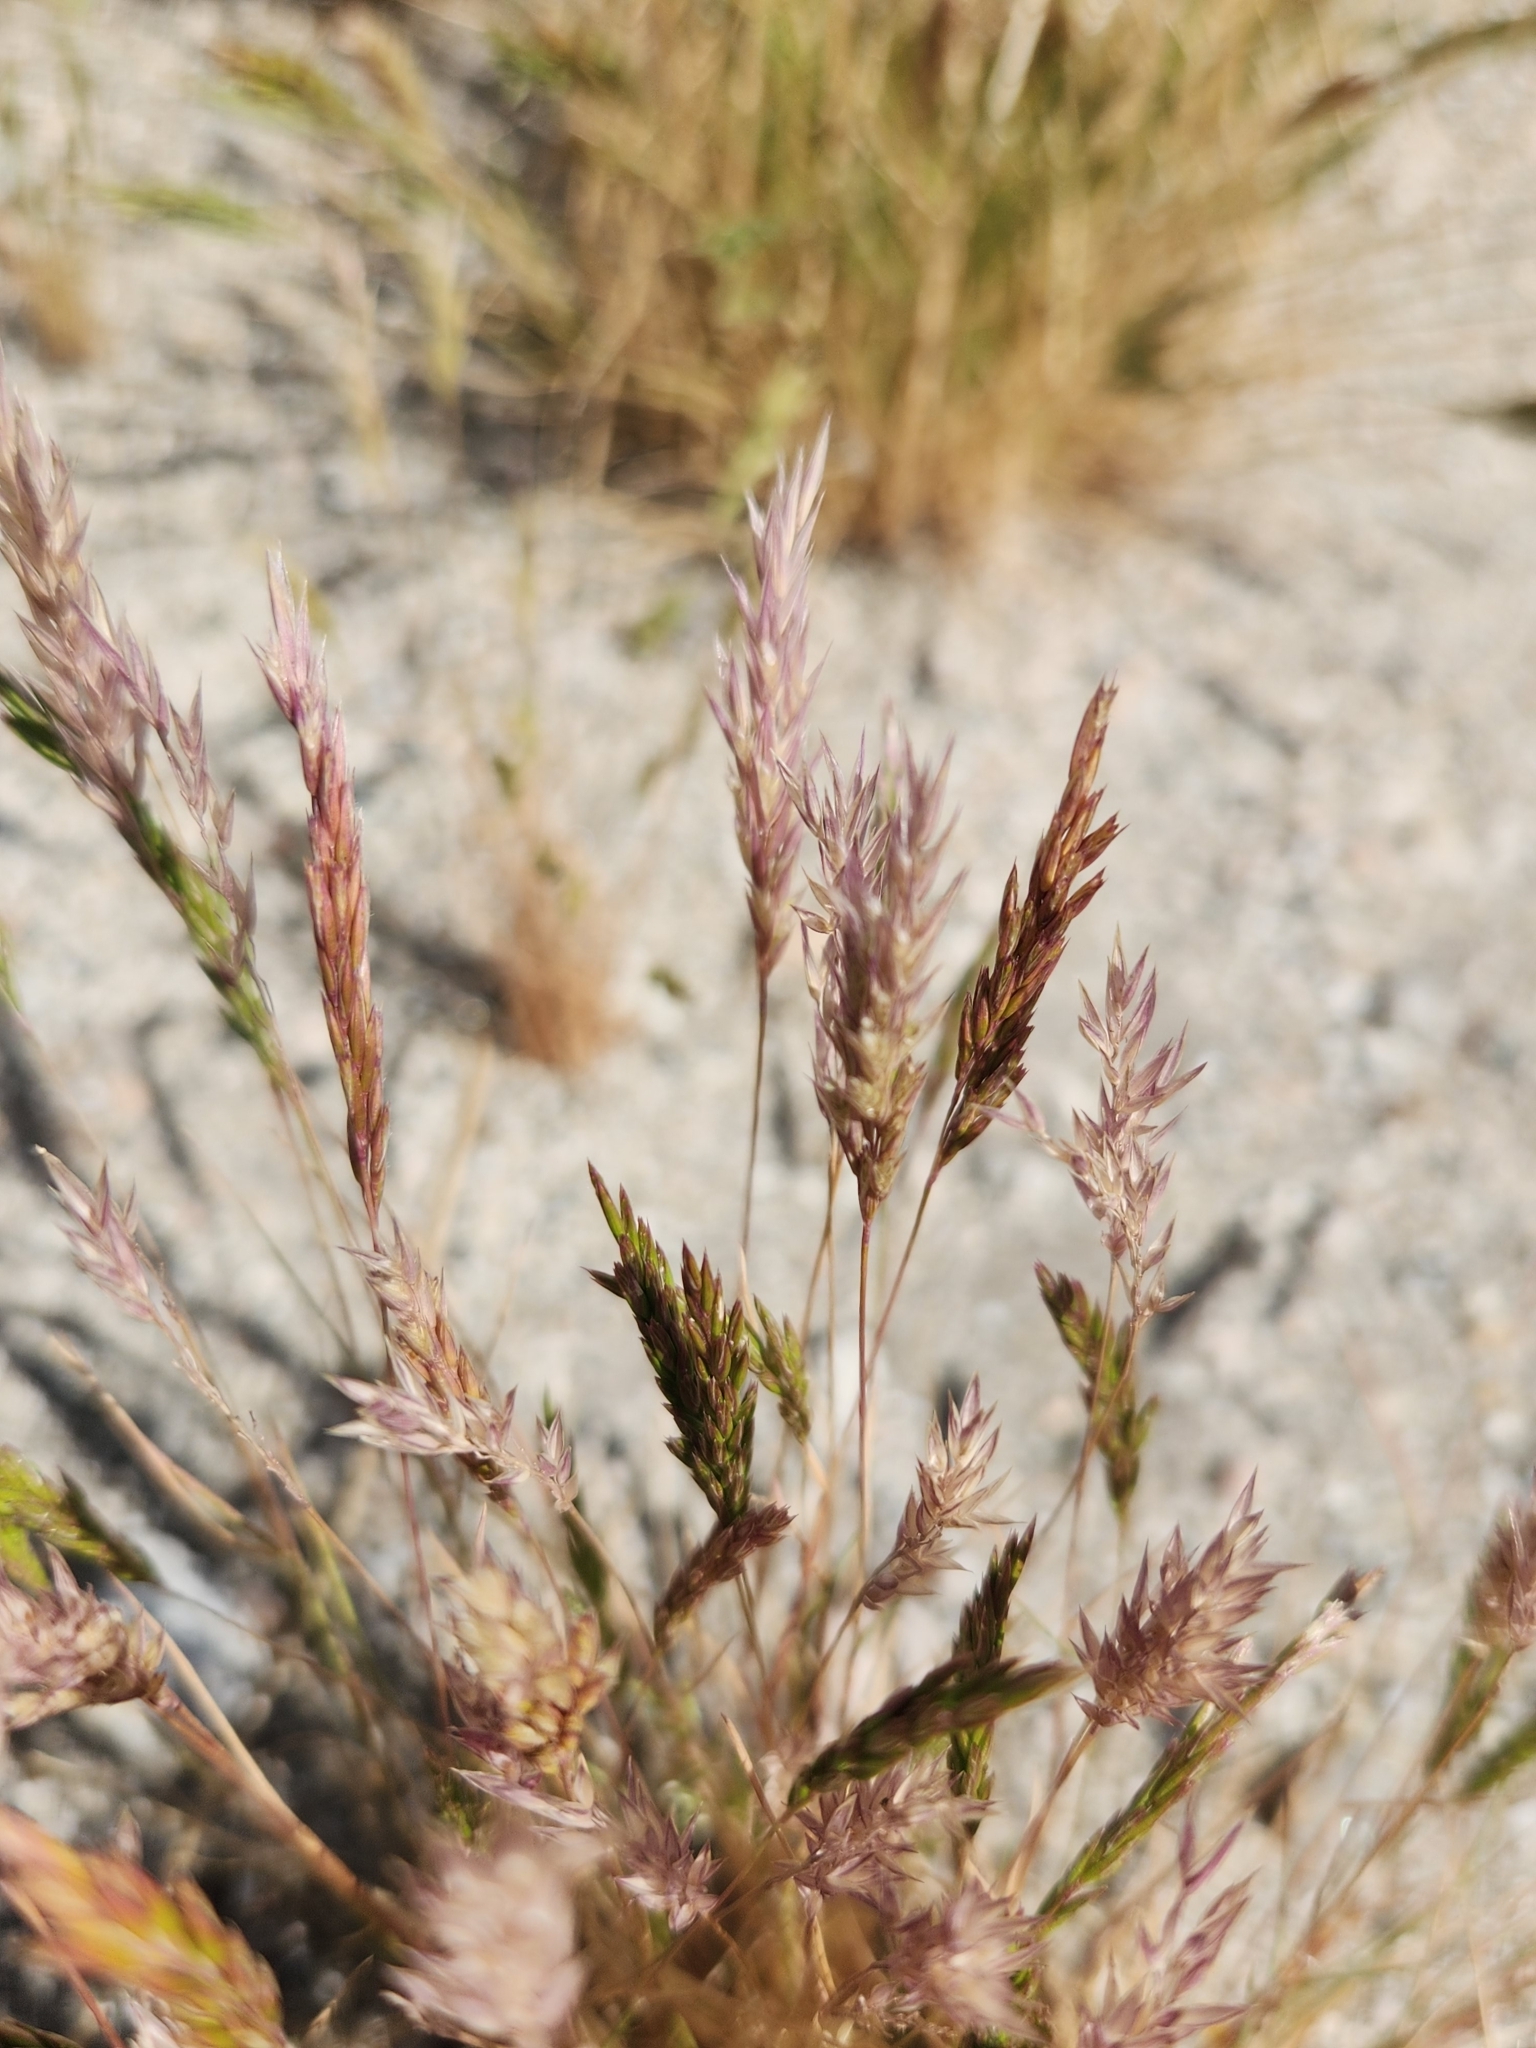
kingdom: Plantae
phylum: Tracheophyta
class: Liliopsida
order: Poales
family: Poaceae
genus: Schismus
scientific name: Schismus barbatus
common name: Kelch-grass
